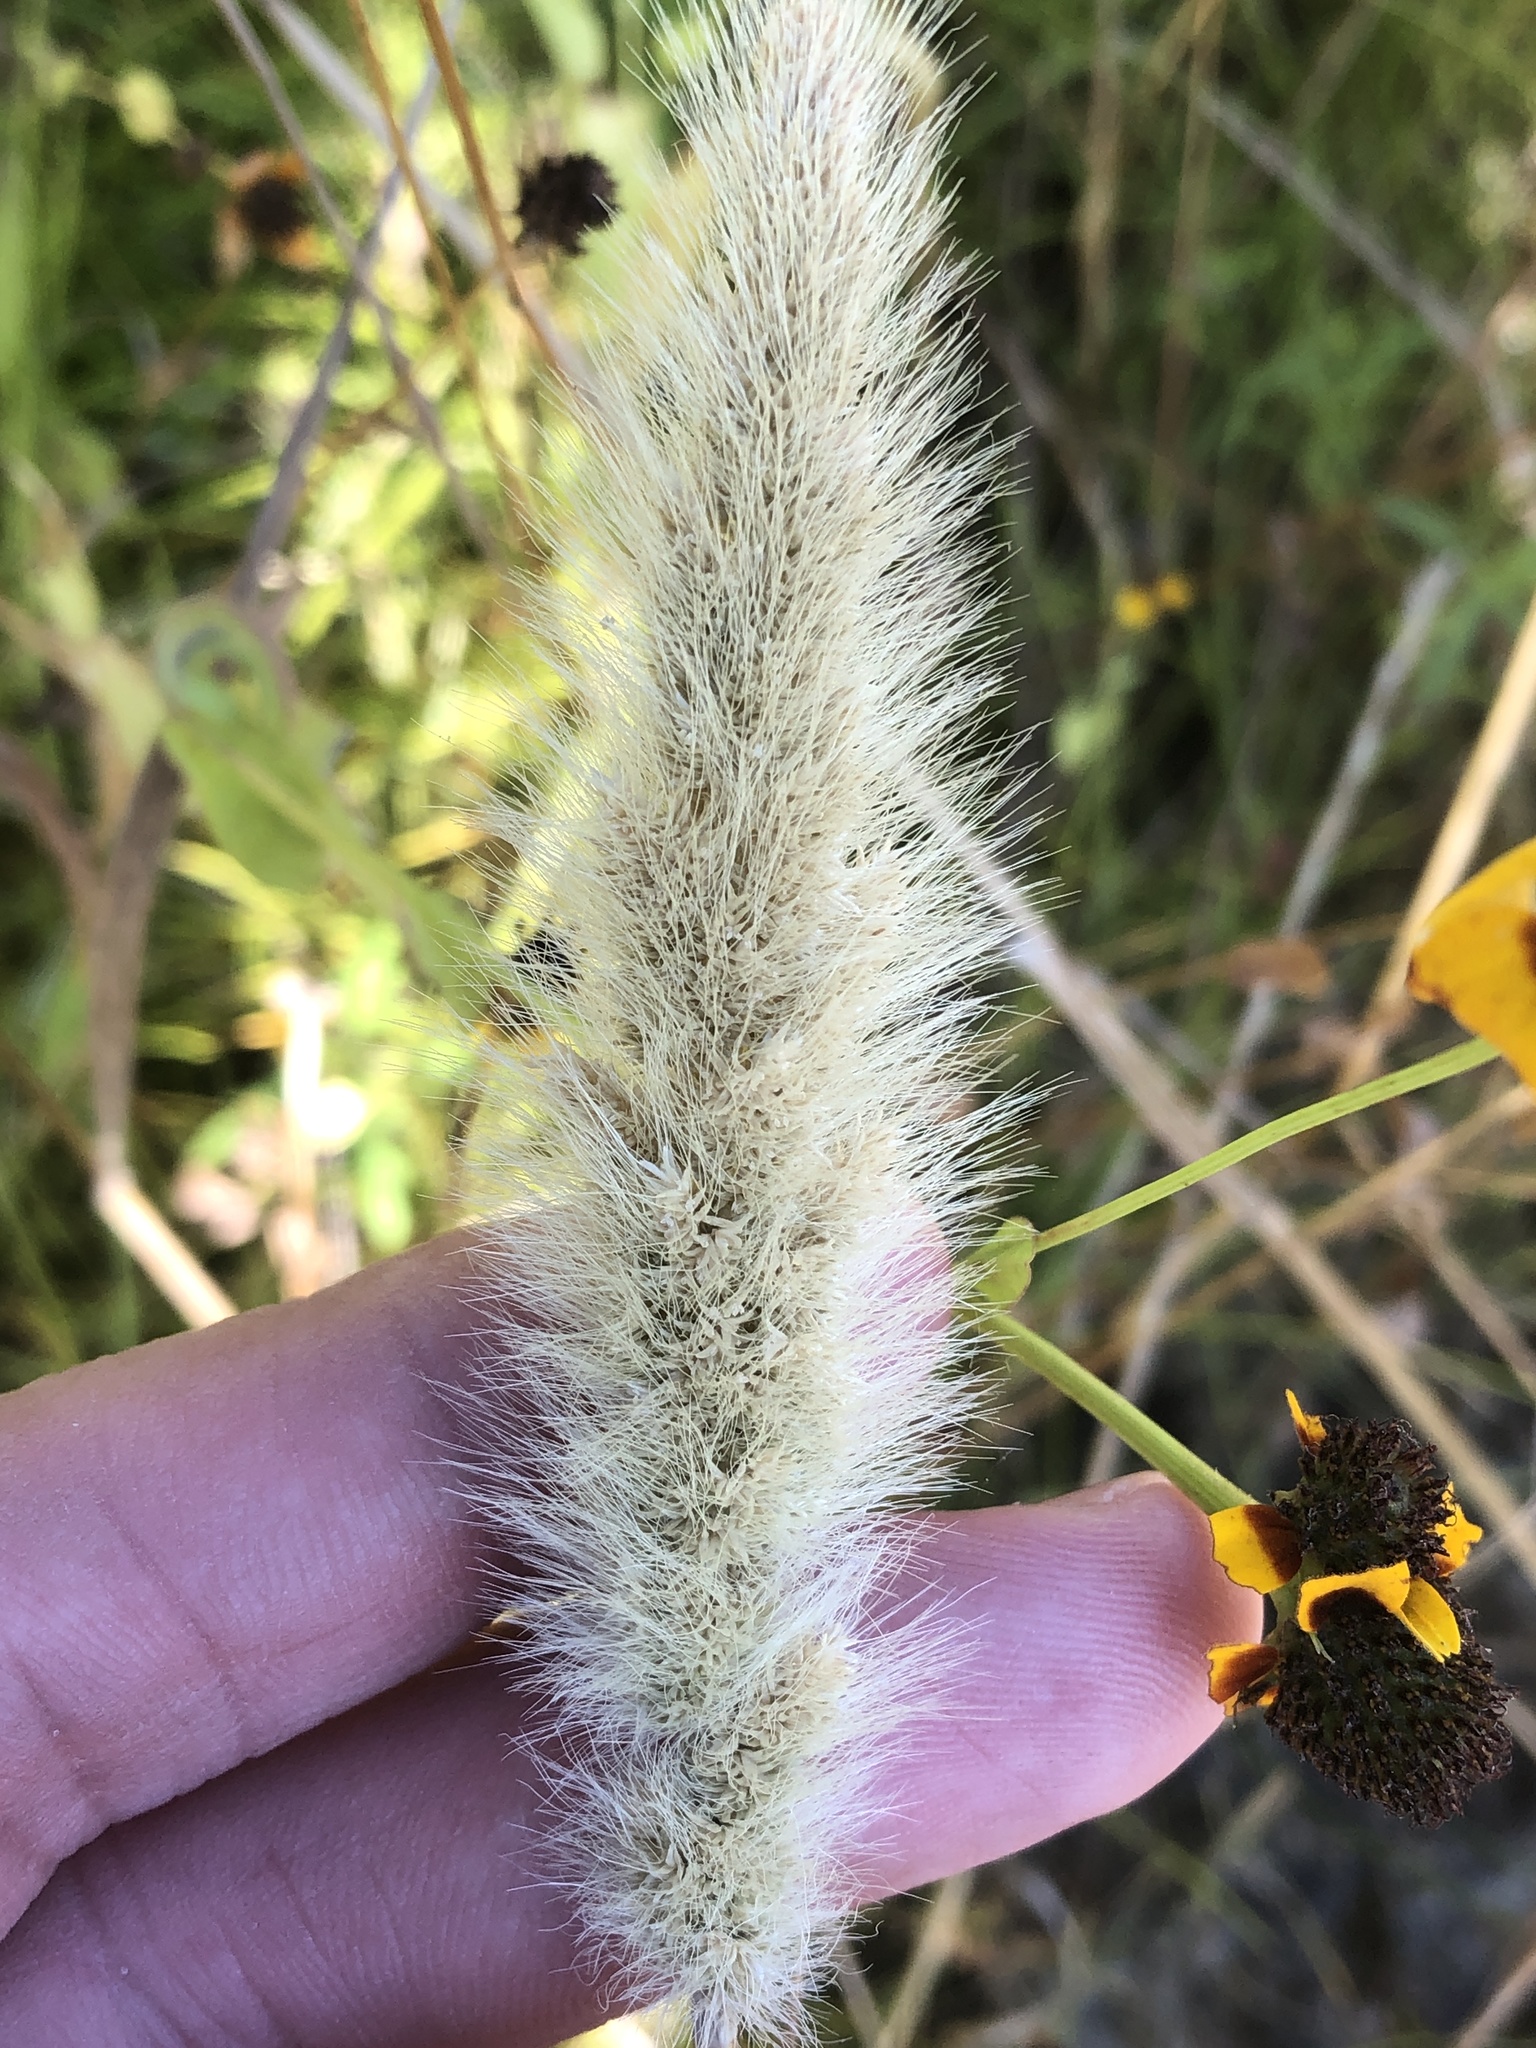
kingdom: Plantae
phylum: Tracheophyta
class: Liliopsida
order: Poales
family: Poaceae
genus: Polypogon
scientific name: Polypogon monspeliensis
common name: Annual rabbitsfoot grass
